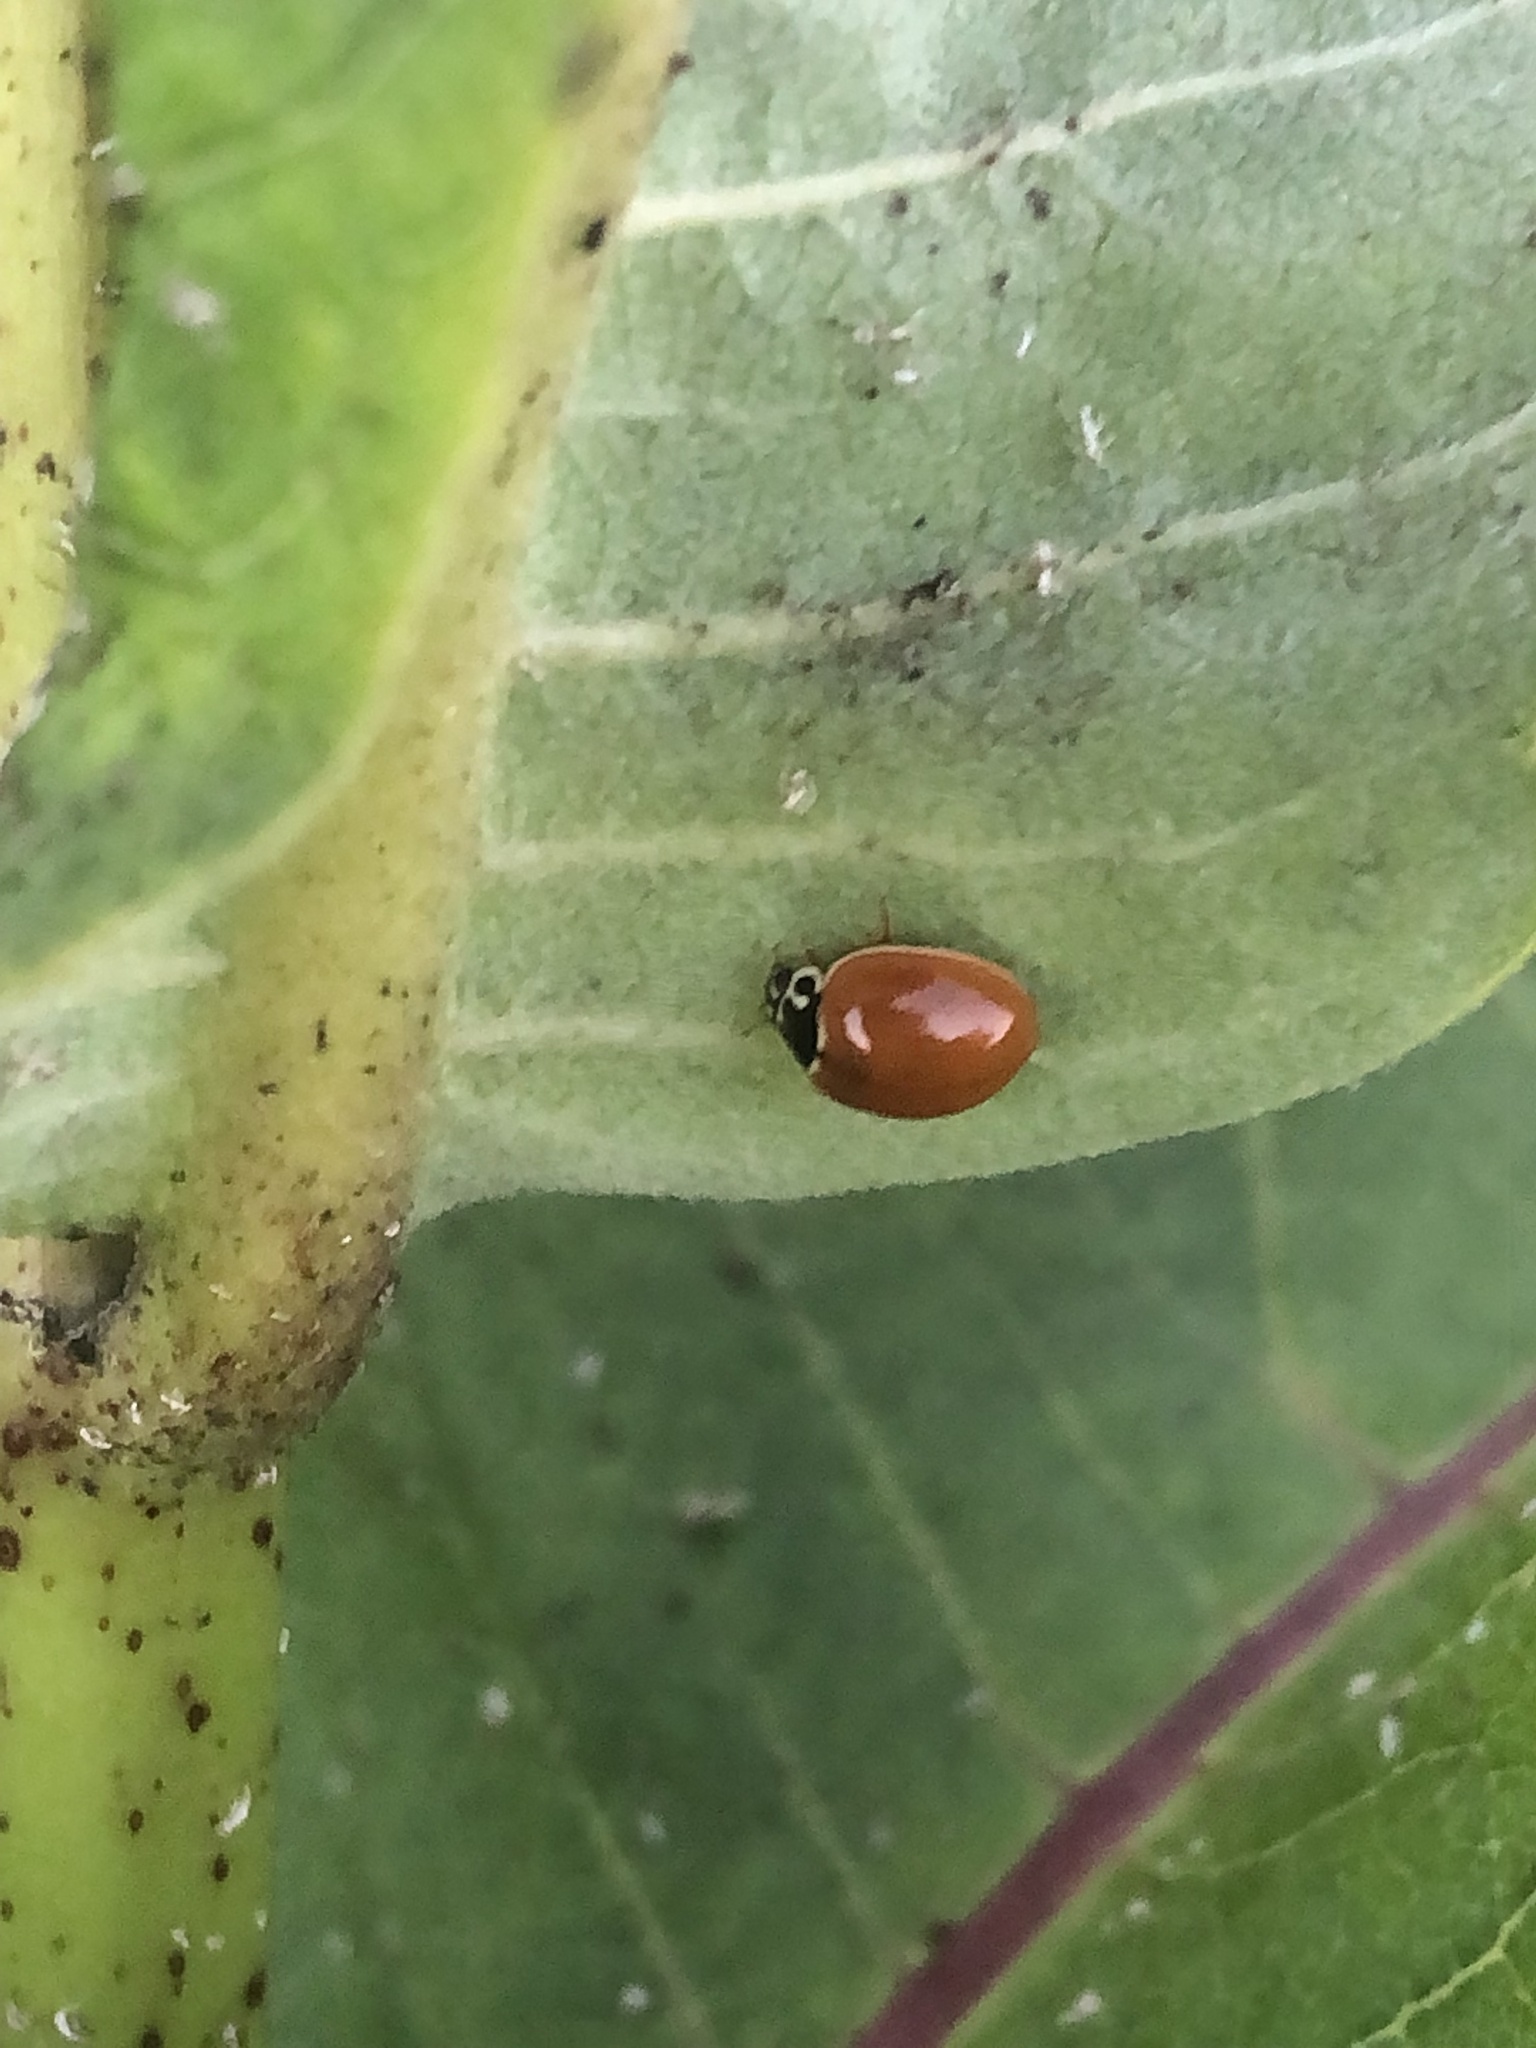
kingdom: Animalia
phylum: Arthropoda
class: Insecta
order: Coleoptera
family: Coccinellidae
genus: Cycloneda
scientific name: Cycloneda munda
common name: Polished lady beetle
